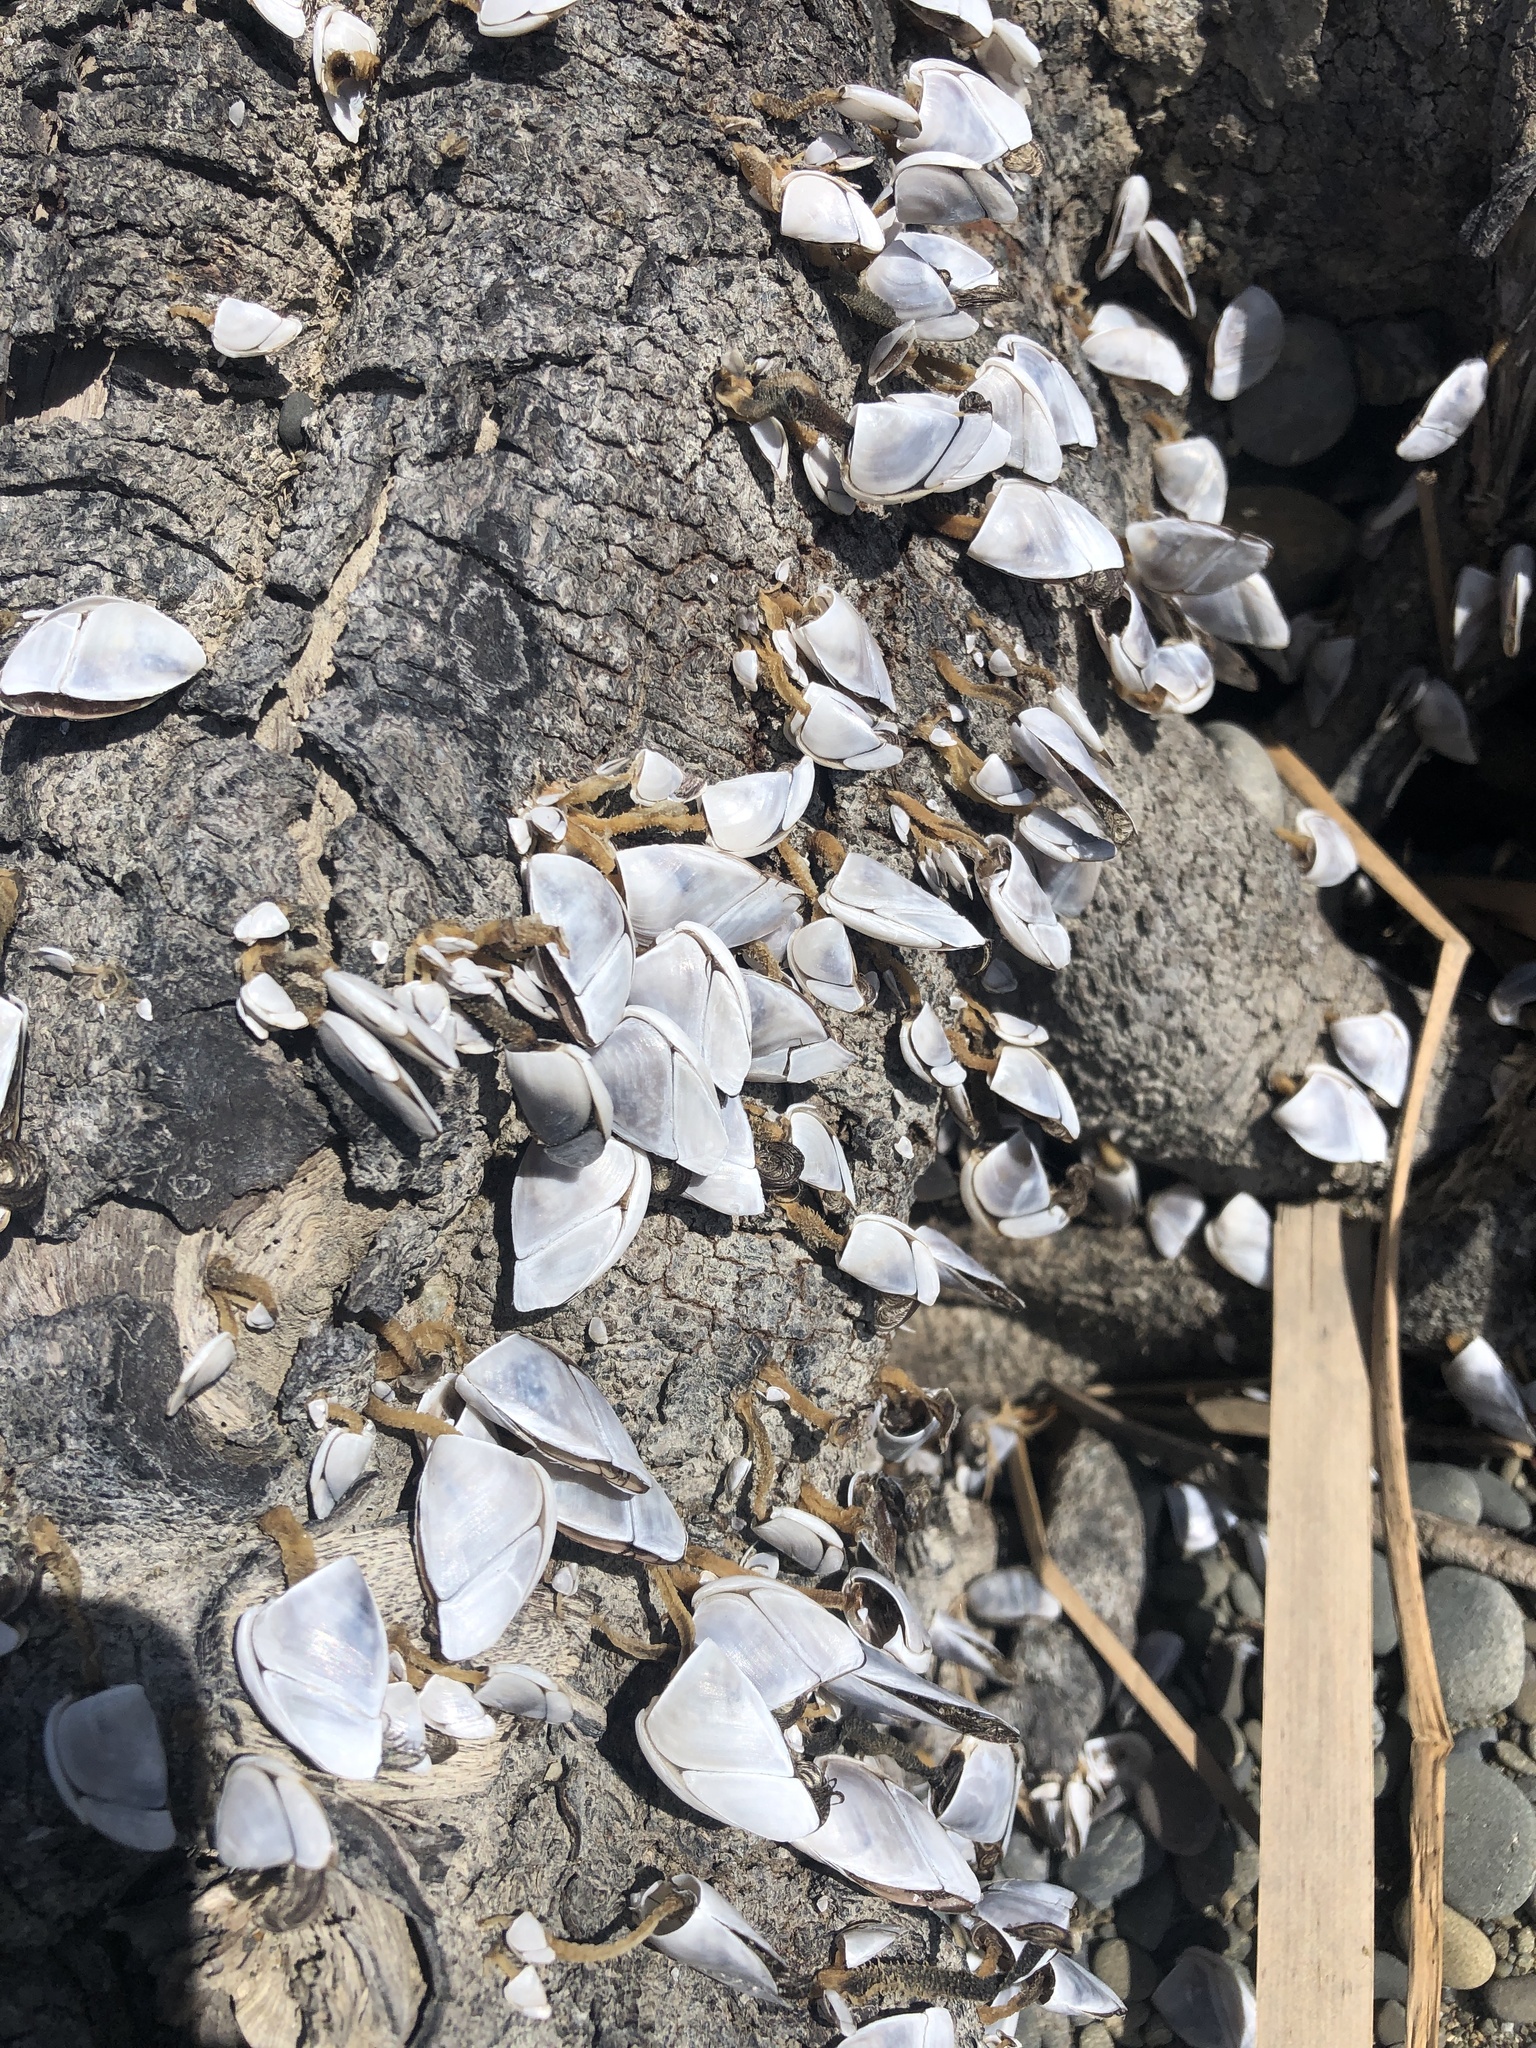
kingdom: Animalia
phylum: Arthropoda
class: Maxillopoda
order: Pedunculata
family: Lepadidae
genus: Lepas
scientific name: Lepas testudinata
